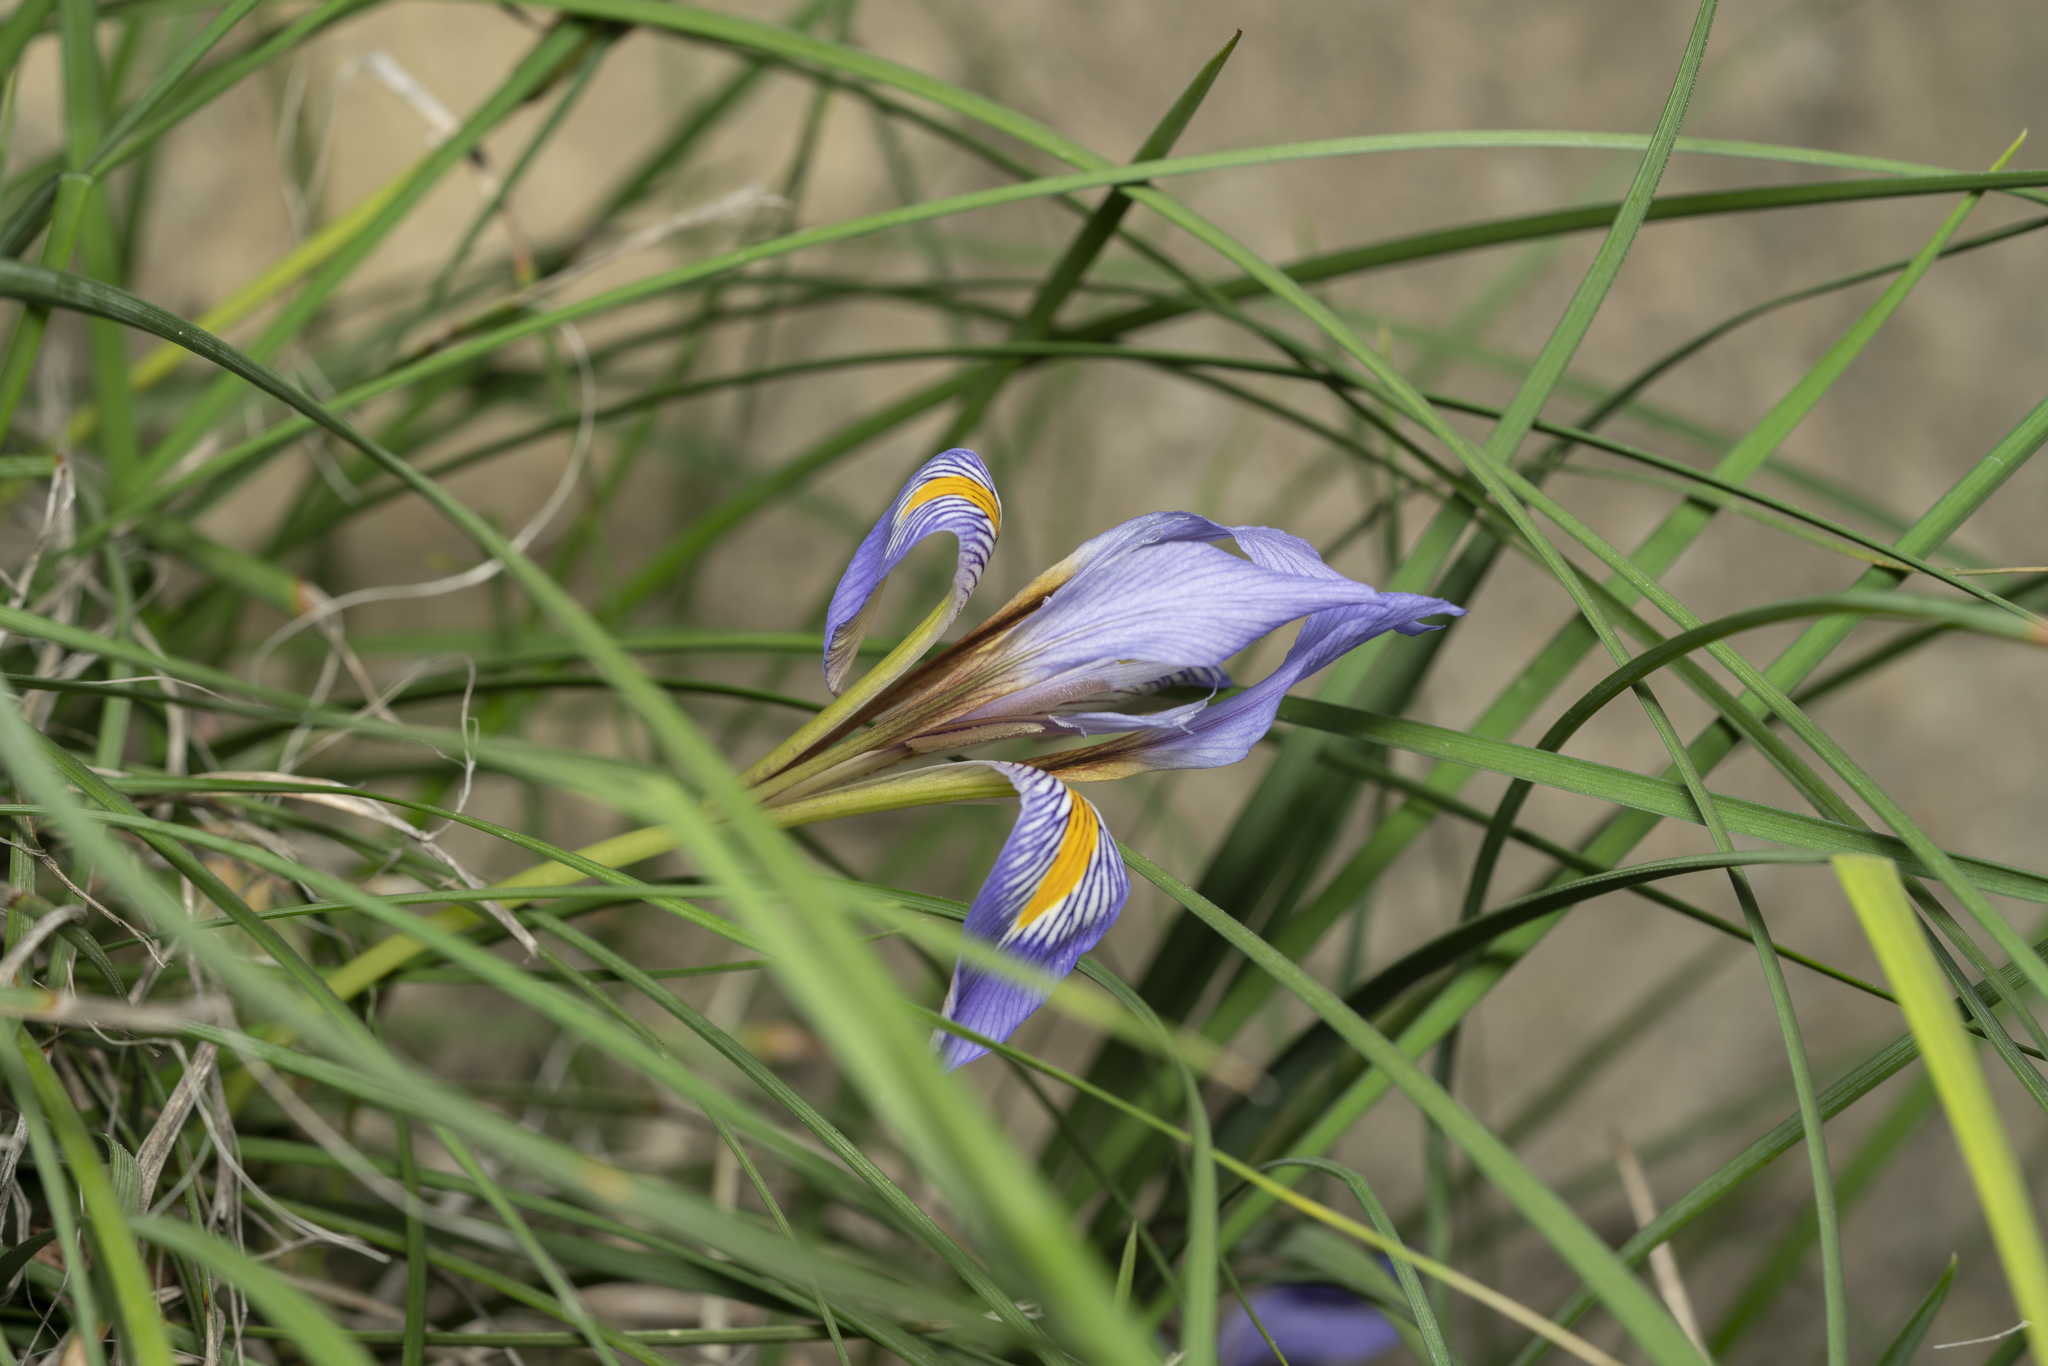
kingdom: Plantae
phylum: Tracheophyta
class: Liliopsida
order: Asparagales
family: Iridaceae
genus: Iris
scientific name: Iris unguicularis
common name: Algerian iris
